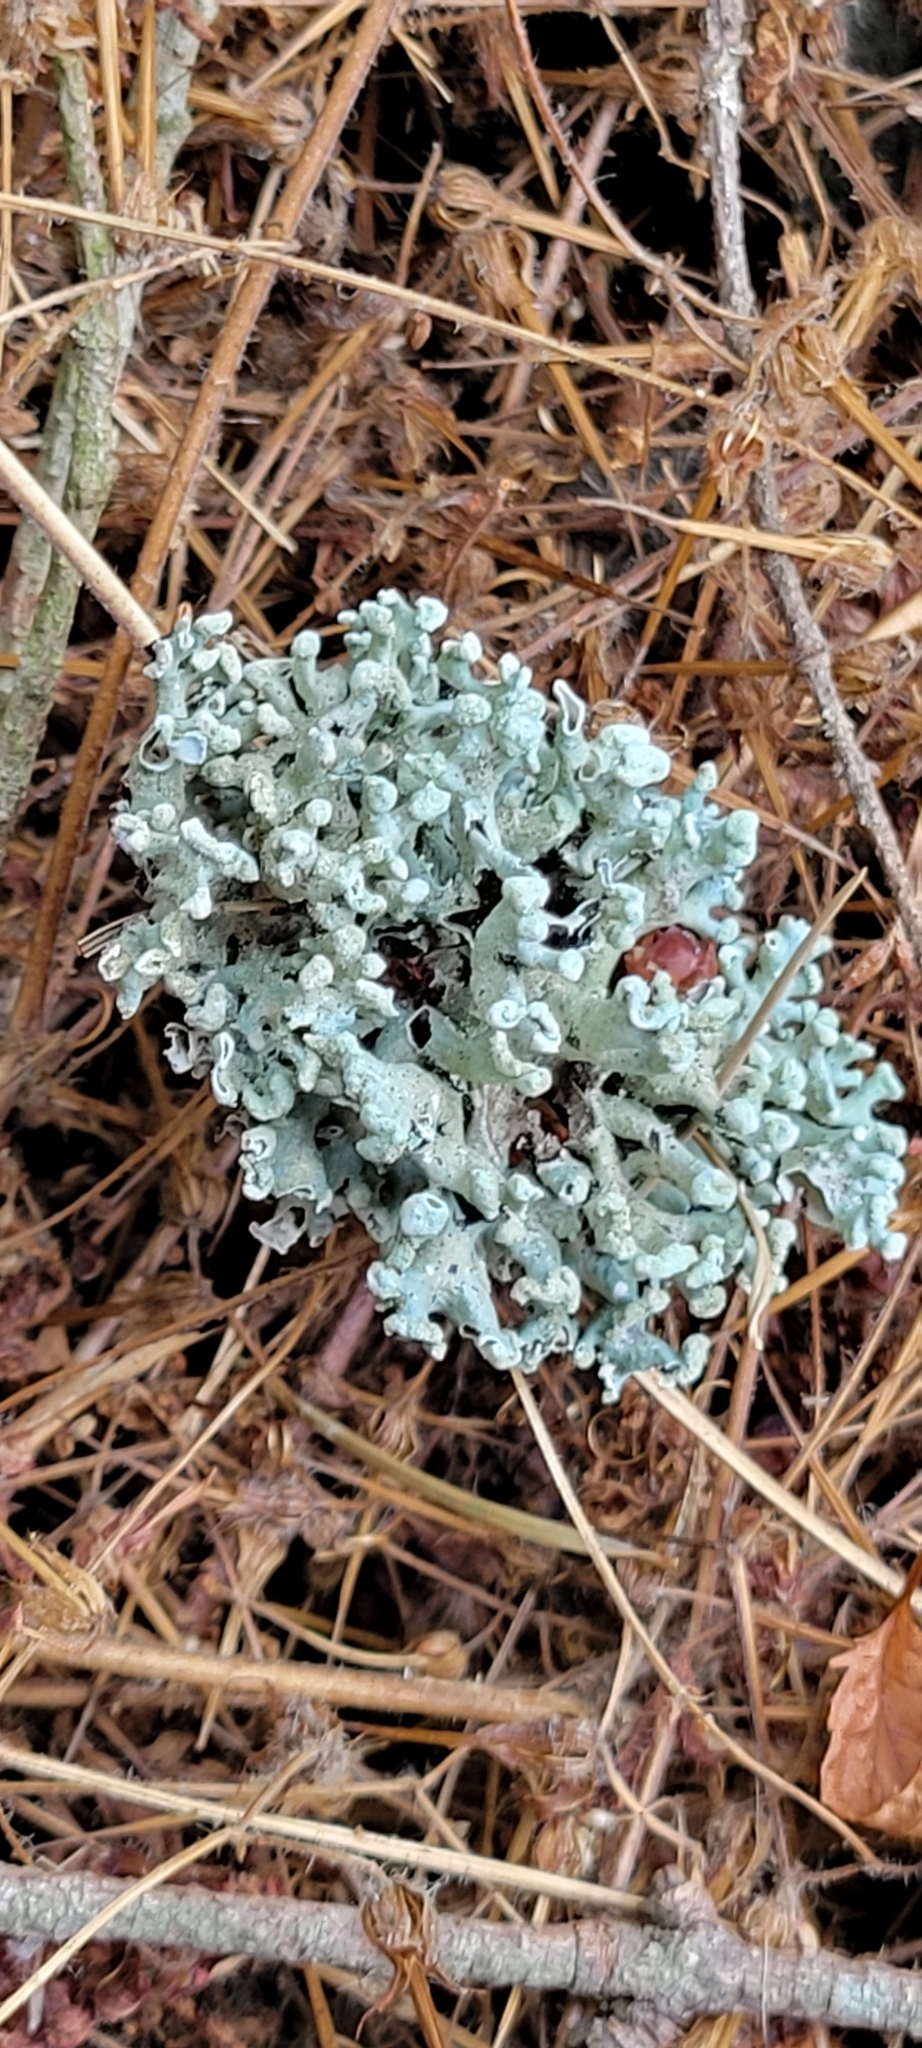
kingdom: Fungi
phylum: Ascomycota
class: Lecanoromycetes
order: Lecanorales
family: Parmeliaceae
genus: Hypogymnia
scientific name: Hypogymnia tubulosa
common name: Powder-headed tube lichen
